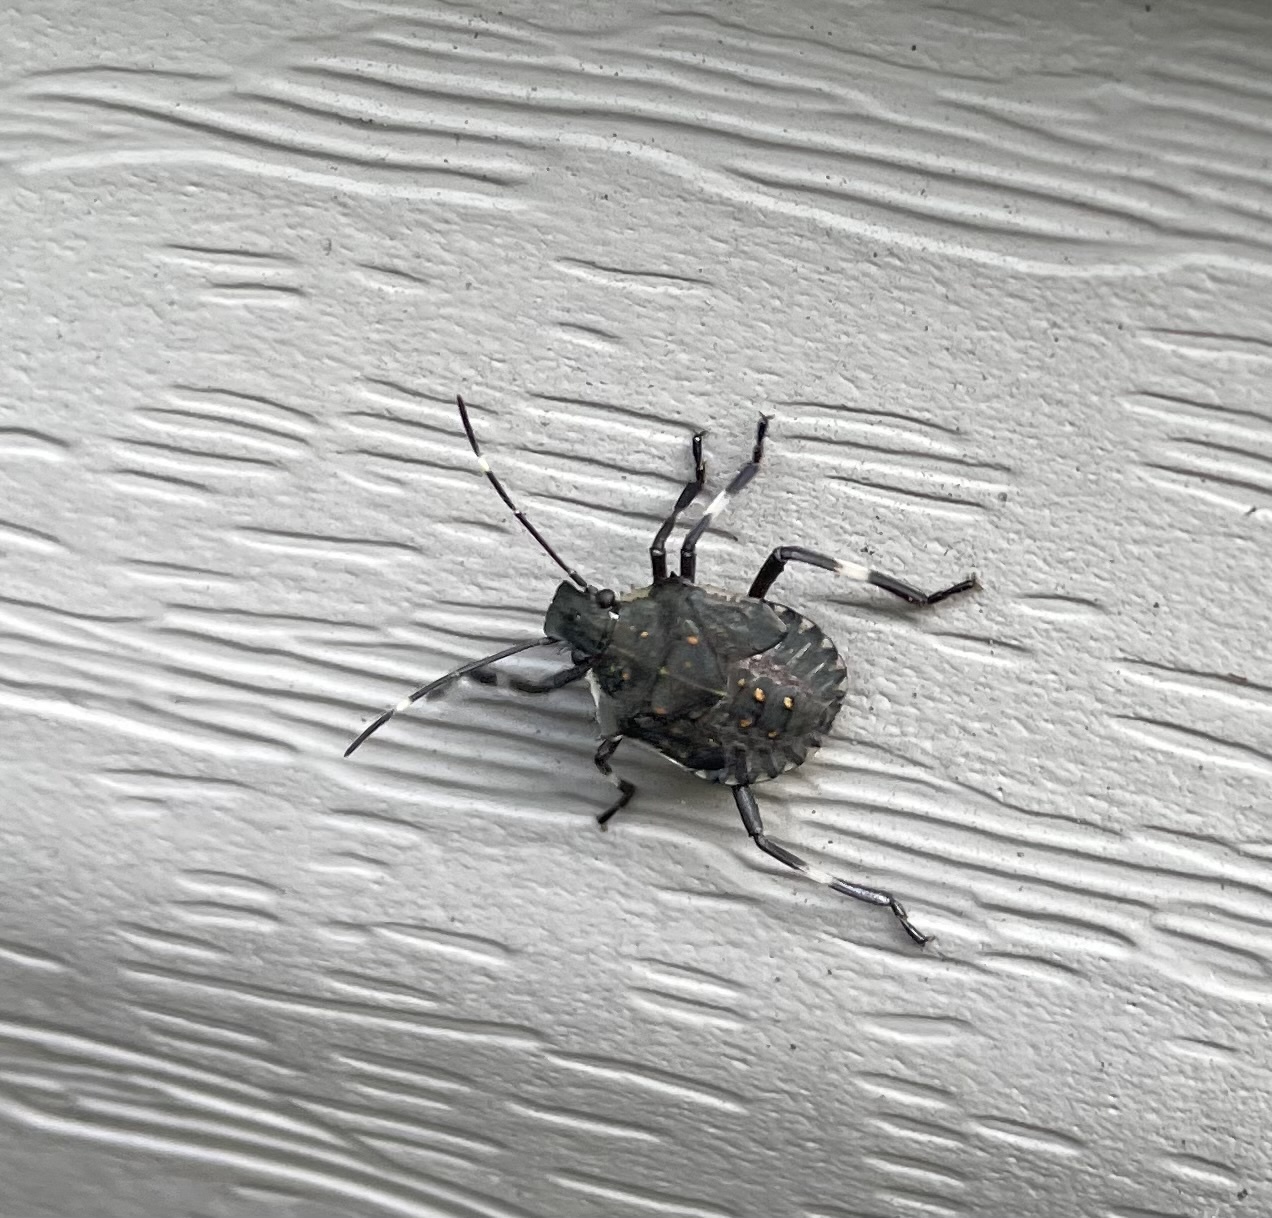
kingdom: Animalia
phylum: Arthropoda
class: Insecta
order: Hemiptera
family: Pentatomidae
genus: Halyomorpha
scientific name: Halyomorpha halys
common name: Brown marmorated stink bug
